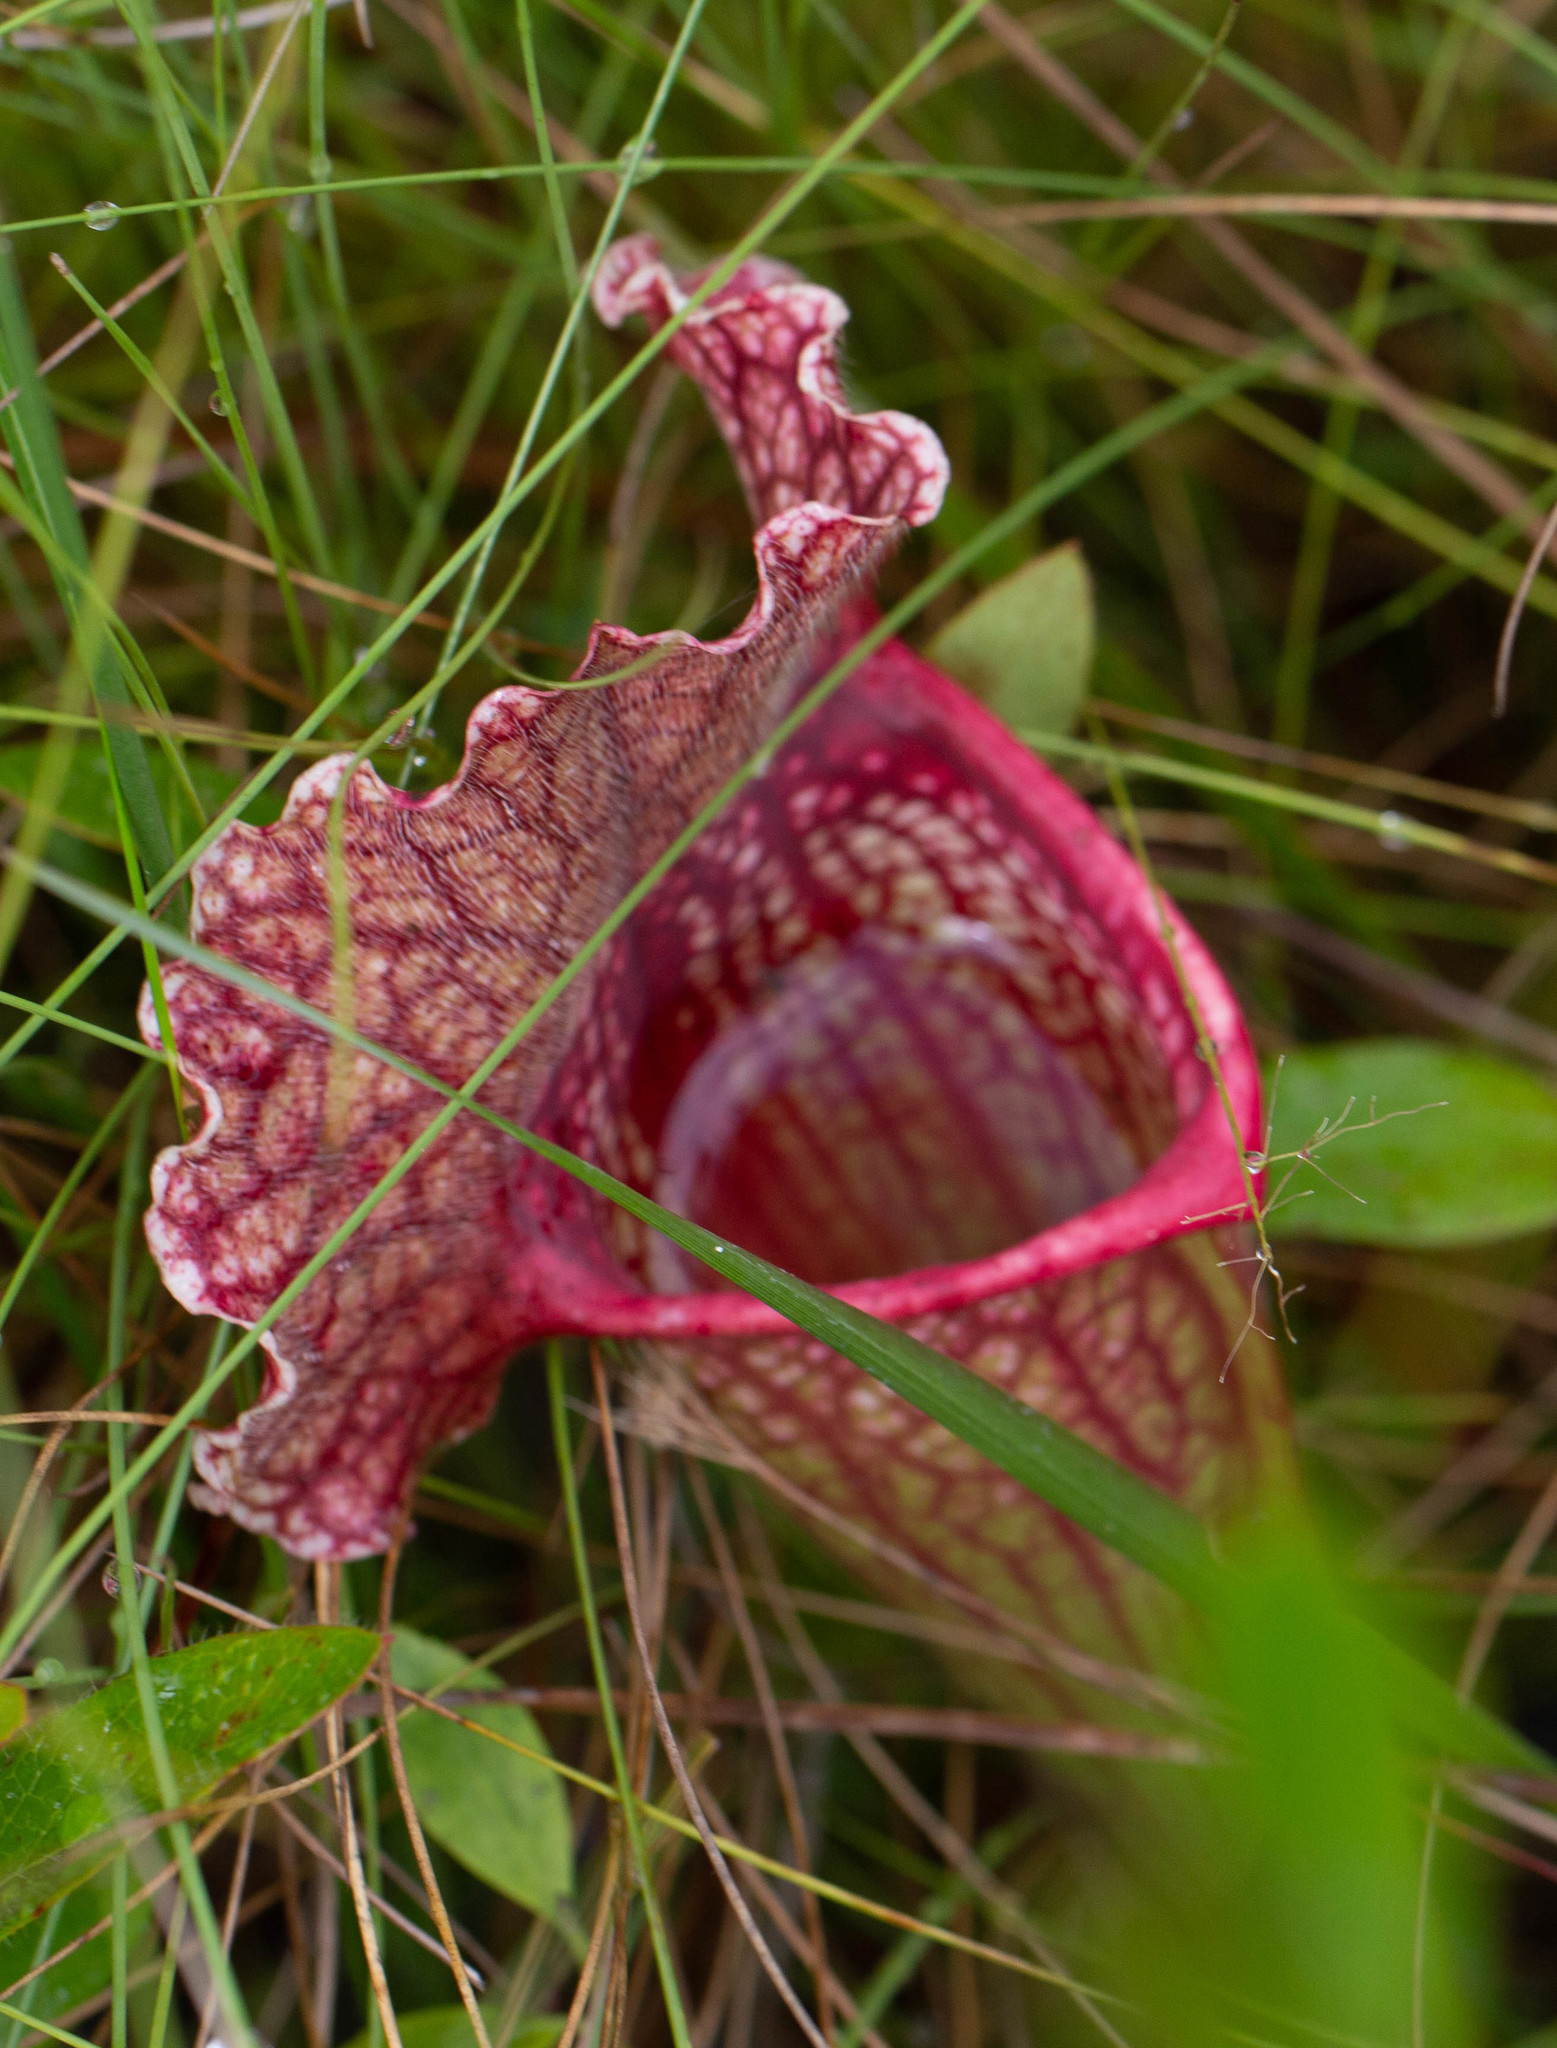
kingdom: Plantae
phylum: Tracheophyta
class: Magnoliopsida
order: Ericales
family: Sarraceniaceae
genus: Sarracenia
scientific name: Sarracenia mitchelliana
